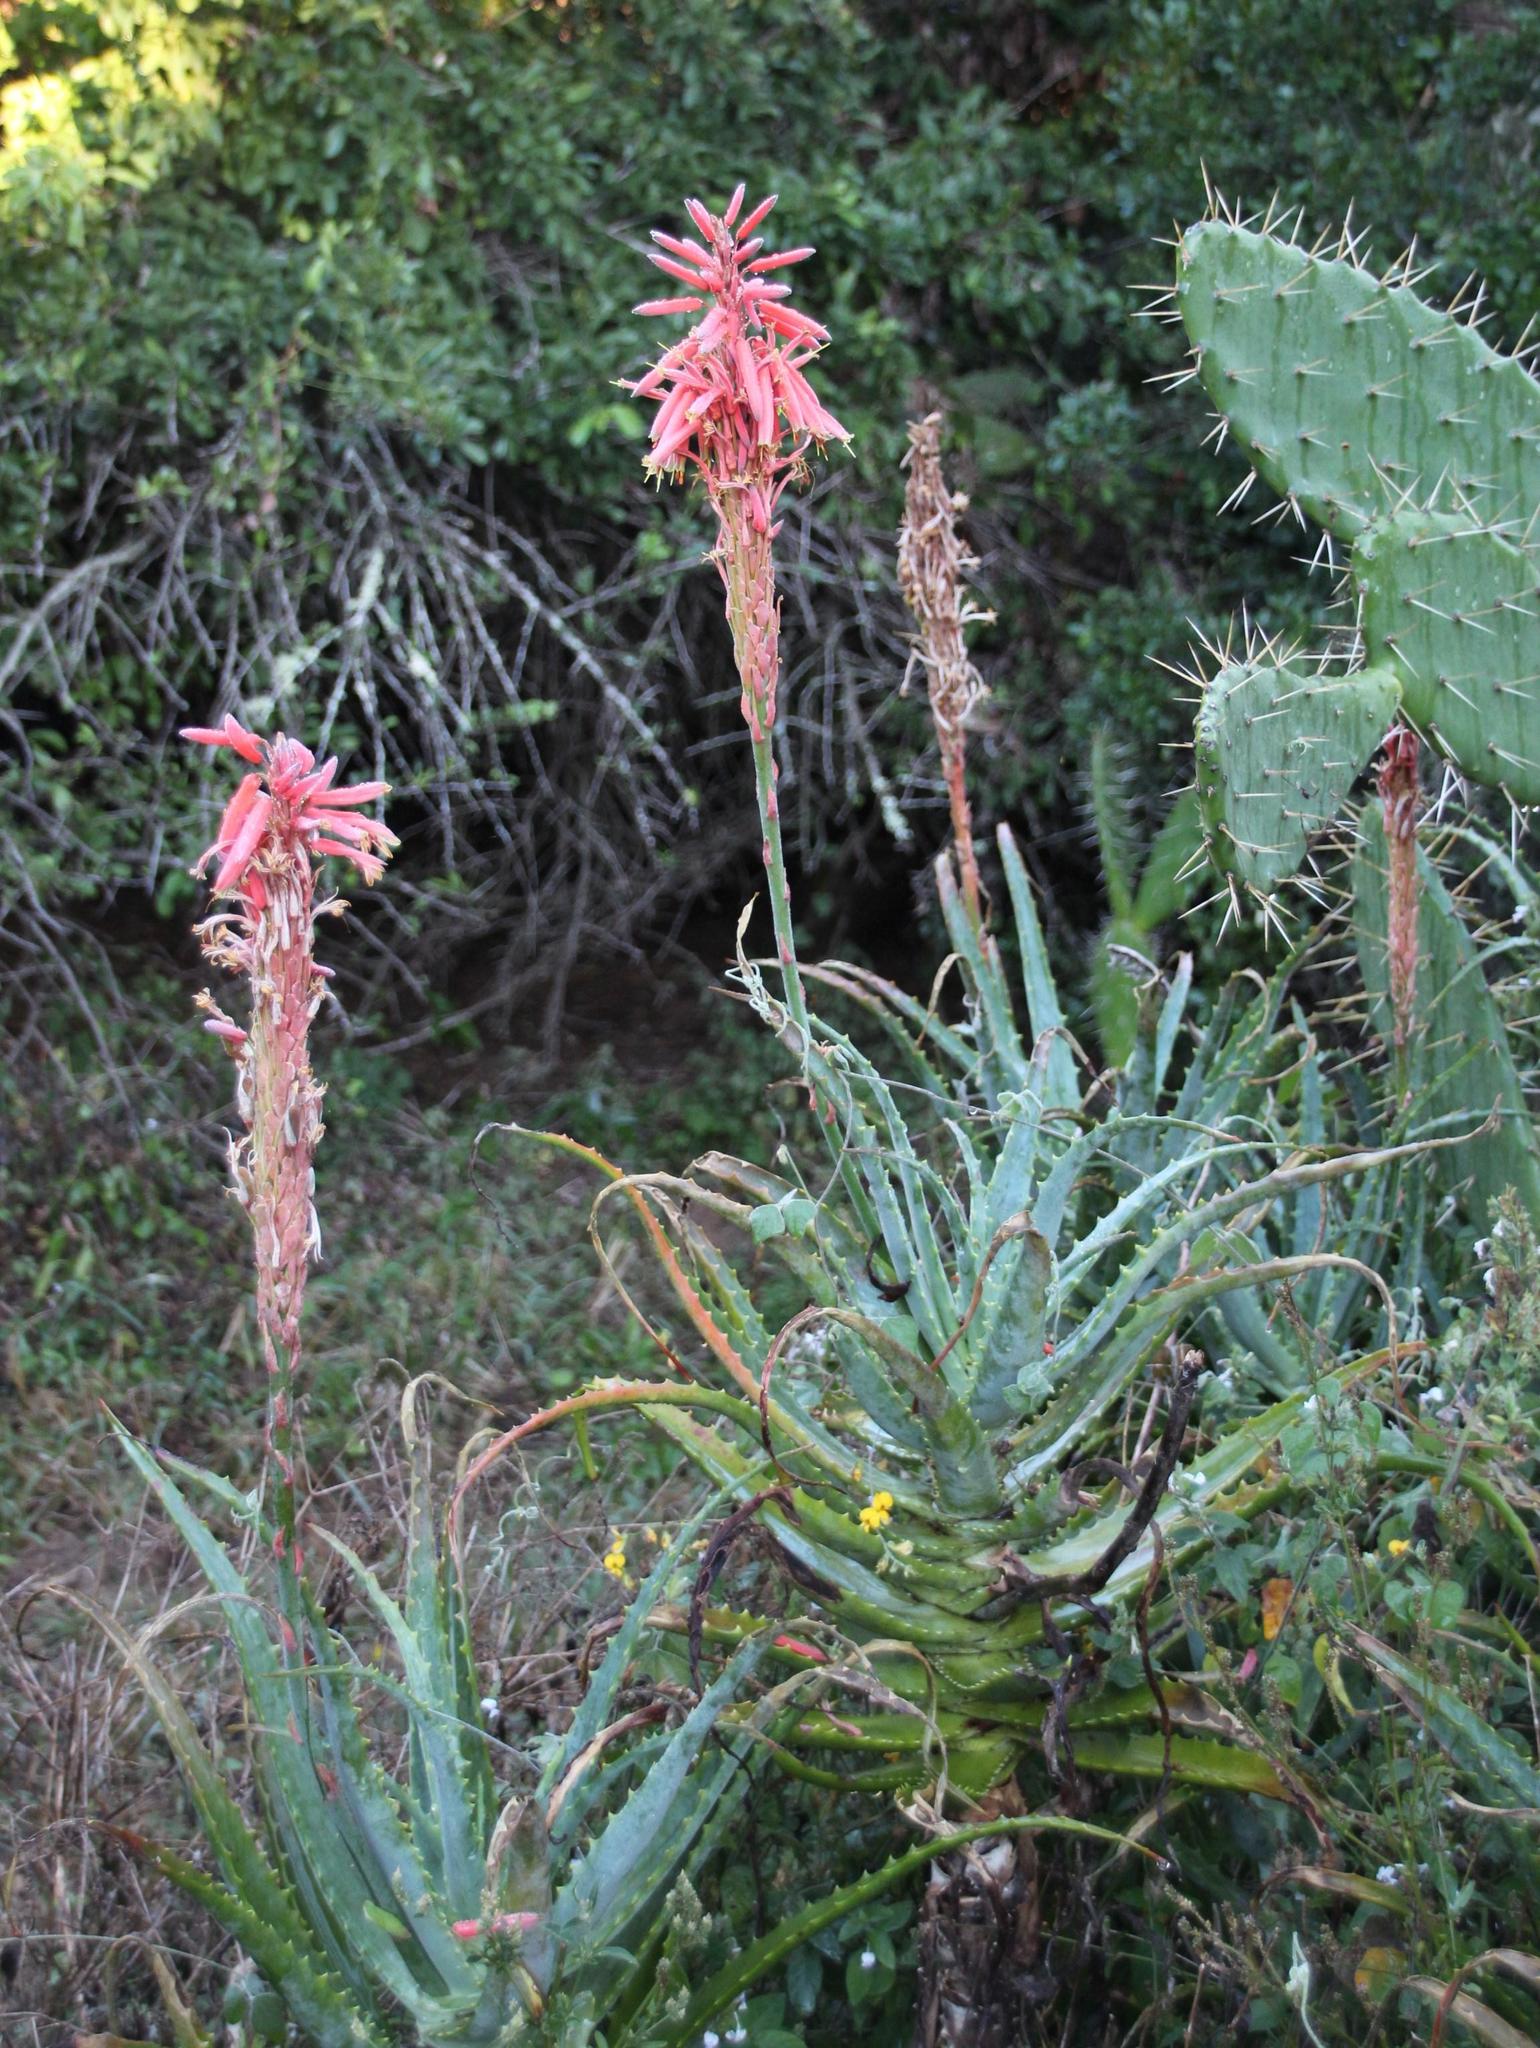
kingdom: Plantae
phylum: Tracheophyta
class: Liliopsida
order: Asparagales
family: Asphodelaceae
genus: Aloe
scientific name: Aloe arborescens
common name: Candelabra aloe
